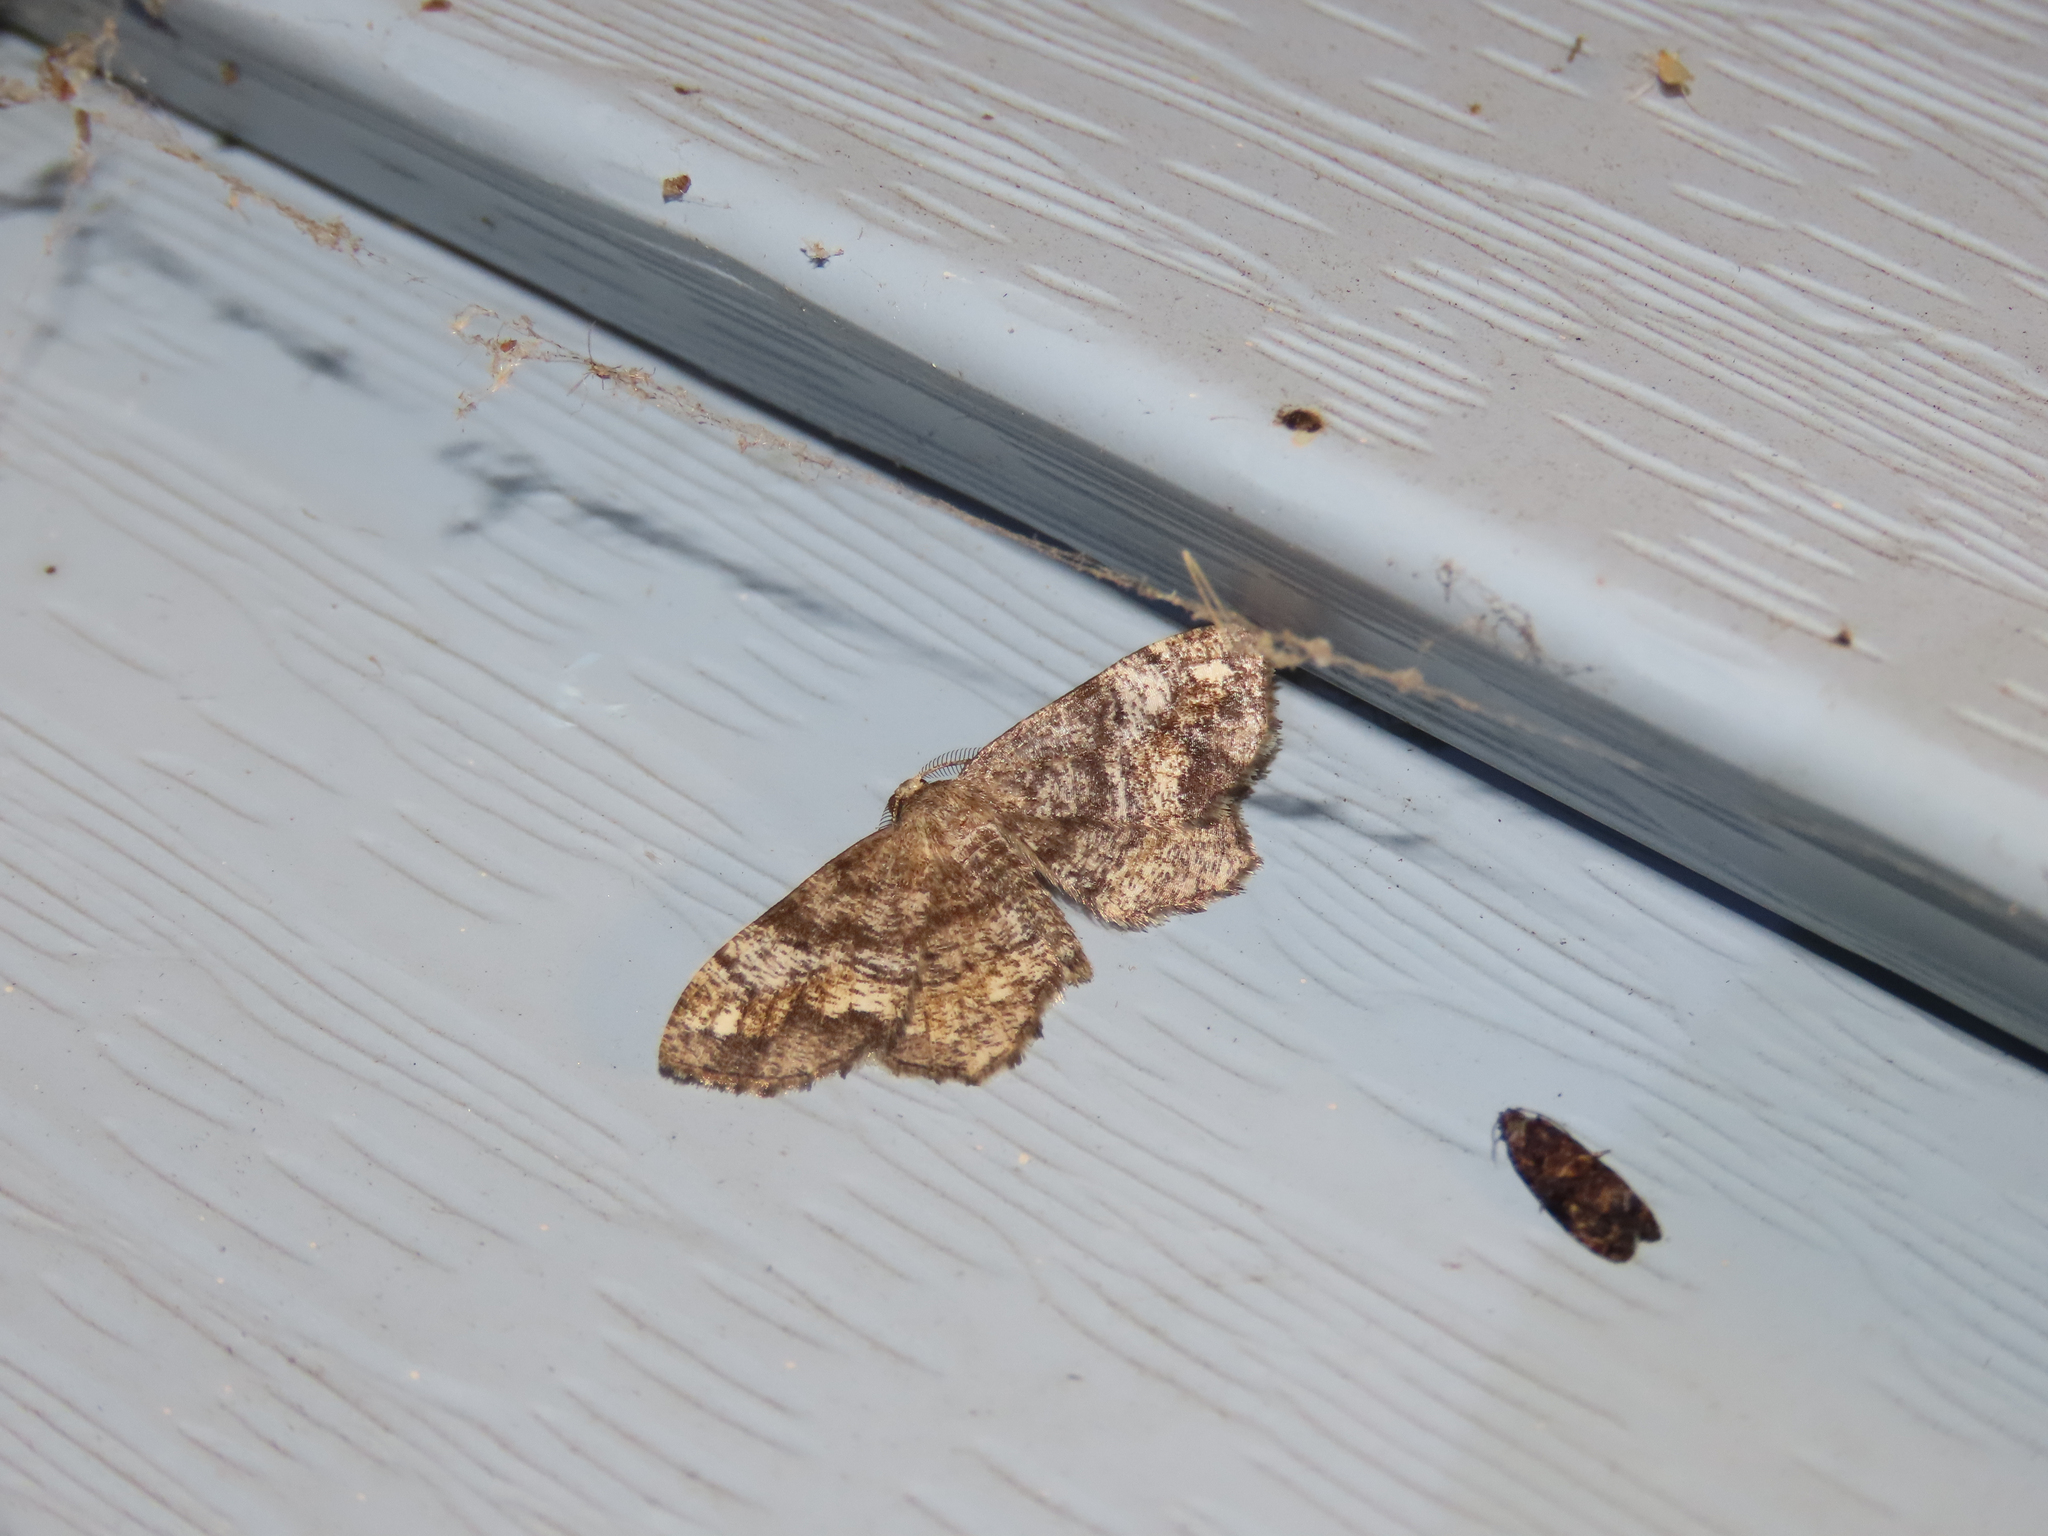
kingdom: Animalia
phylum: Arthropoda
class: Insecta
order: Lepidoptera
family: Geometridae
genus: Hypagyrtis
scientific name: Hypagyrtis unipunctata
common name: One-spotted variant
